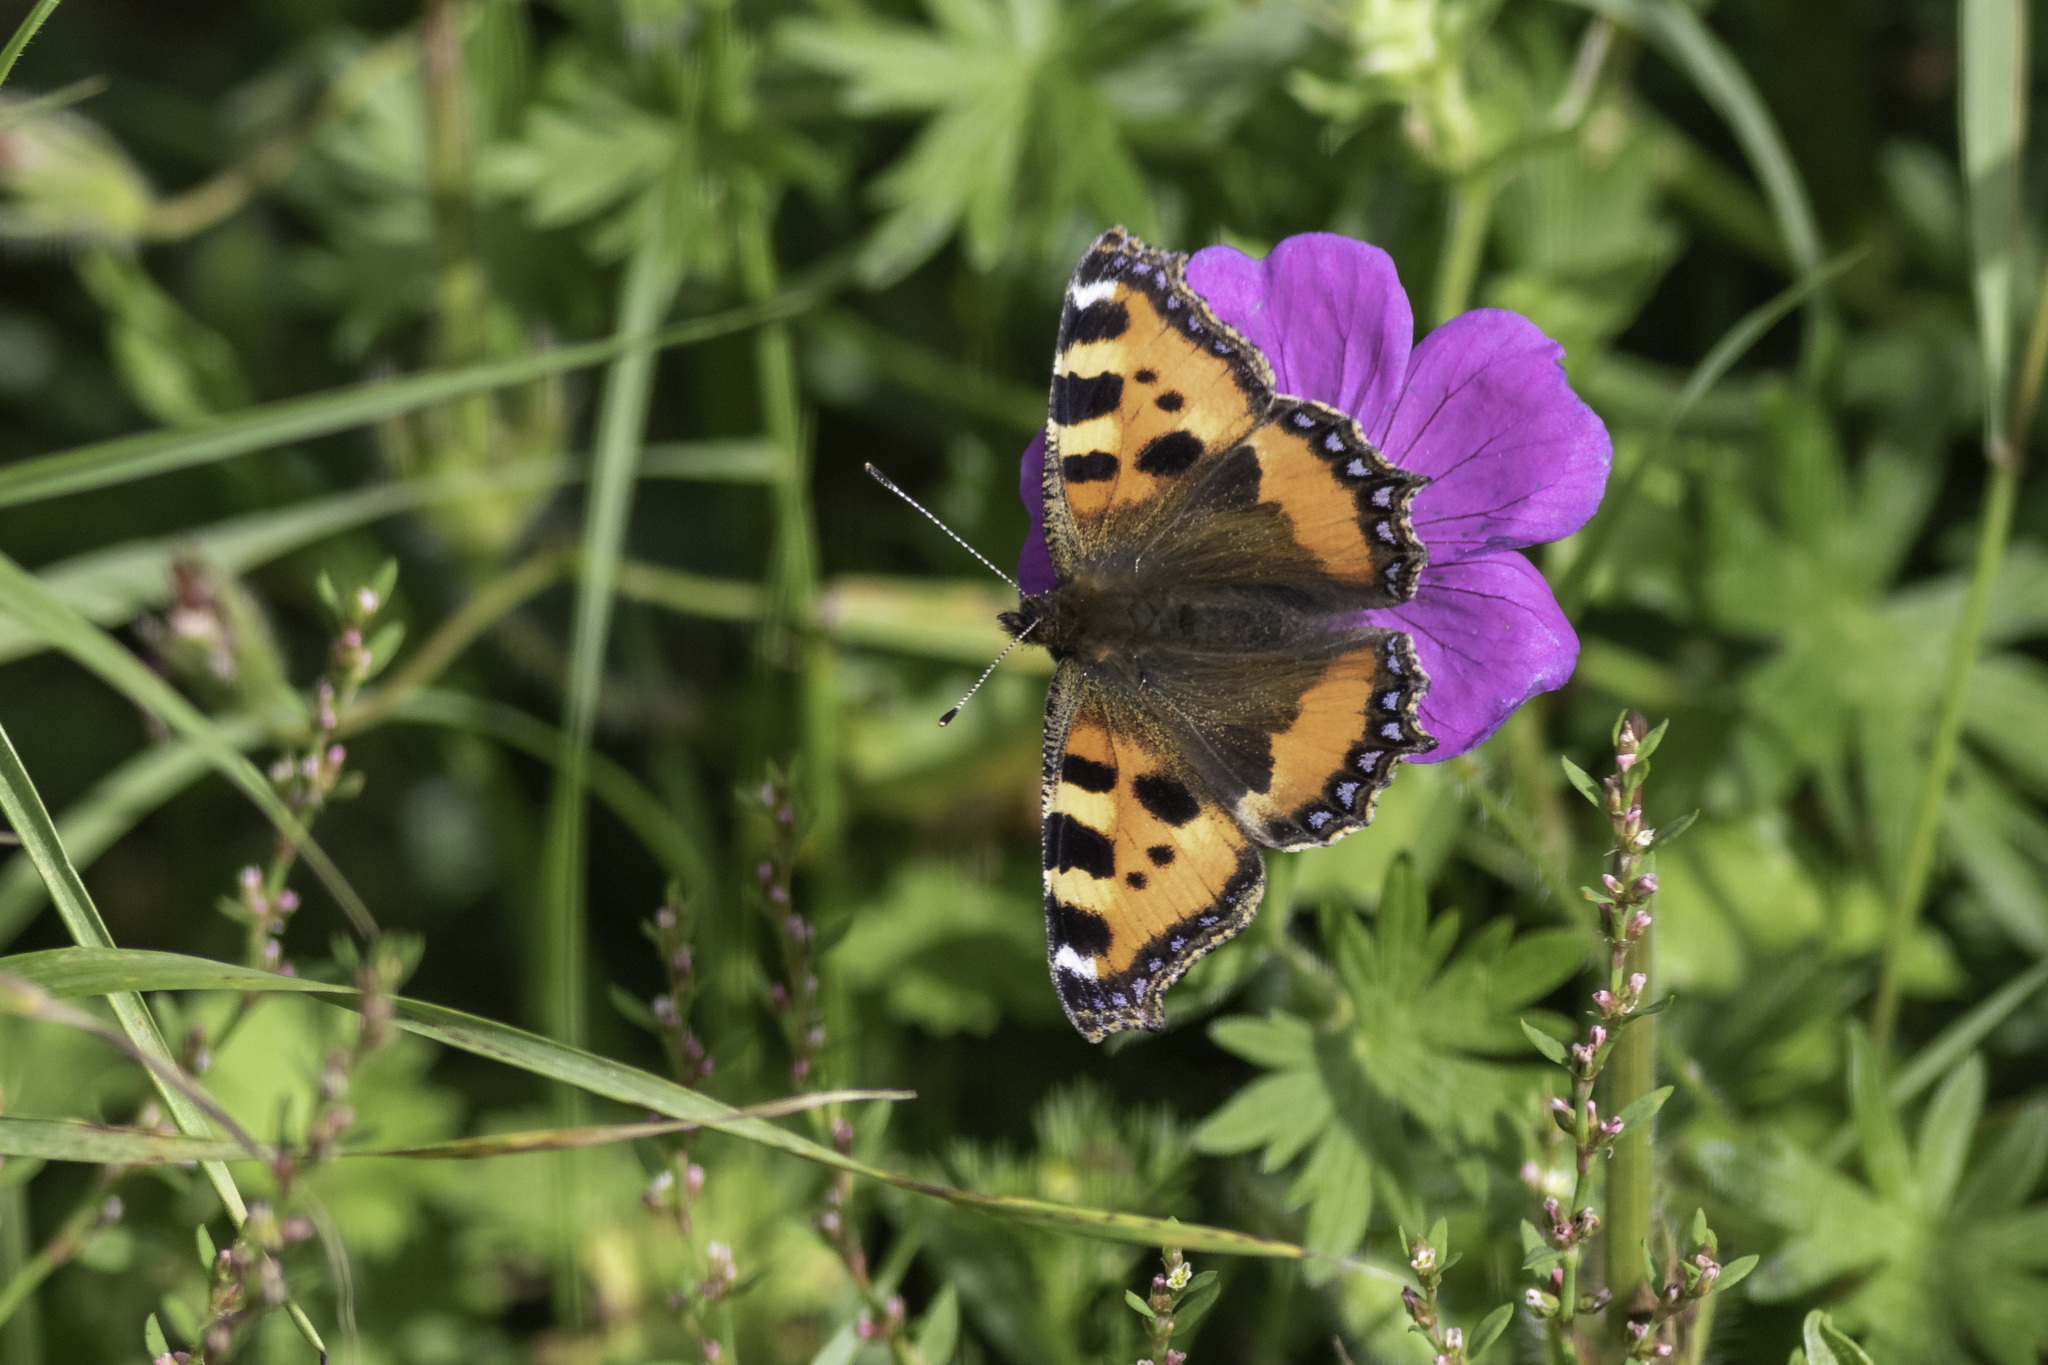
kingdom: Animalia
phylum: Arthropoda
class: Insecta
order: Lepidoptera
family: Nymphalidae
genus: Aglais
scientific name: Aglais urticae
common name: Small tortoiseshell
